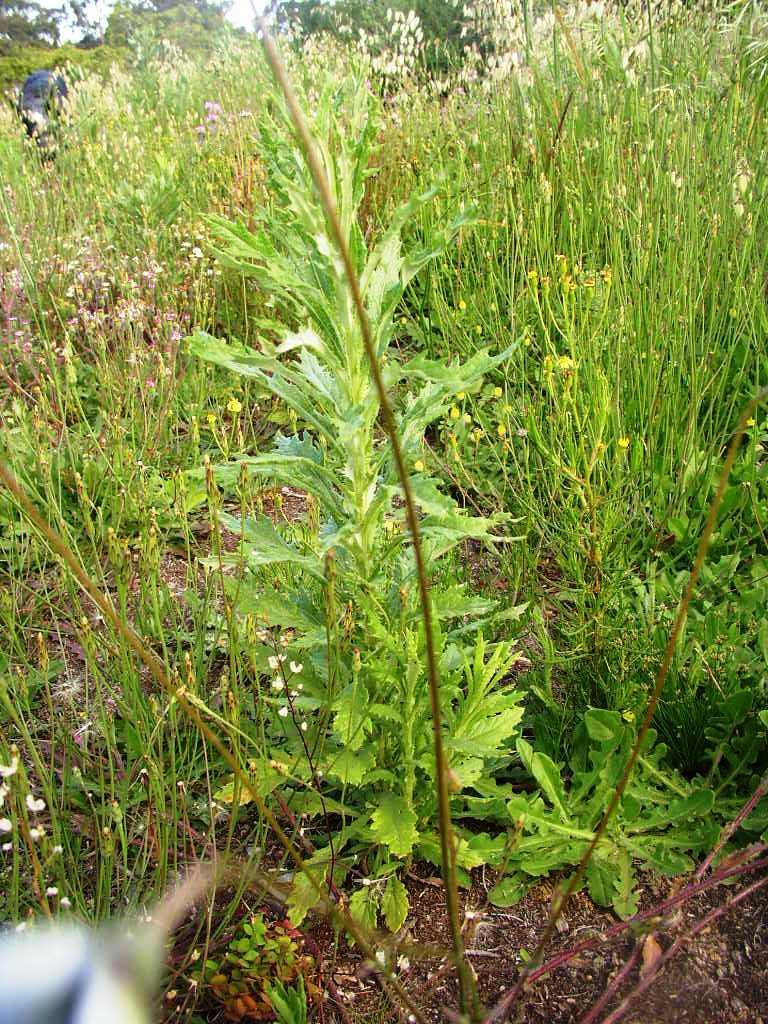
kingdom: Plantae
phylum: Tracheophyta
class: Magnoliopsida
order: Asterales
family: Asteraceae
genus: Senecio
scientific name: Senecio pterophorus
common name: Shoddy ragwort
